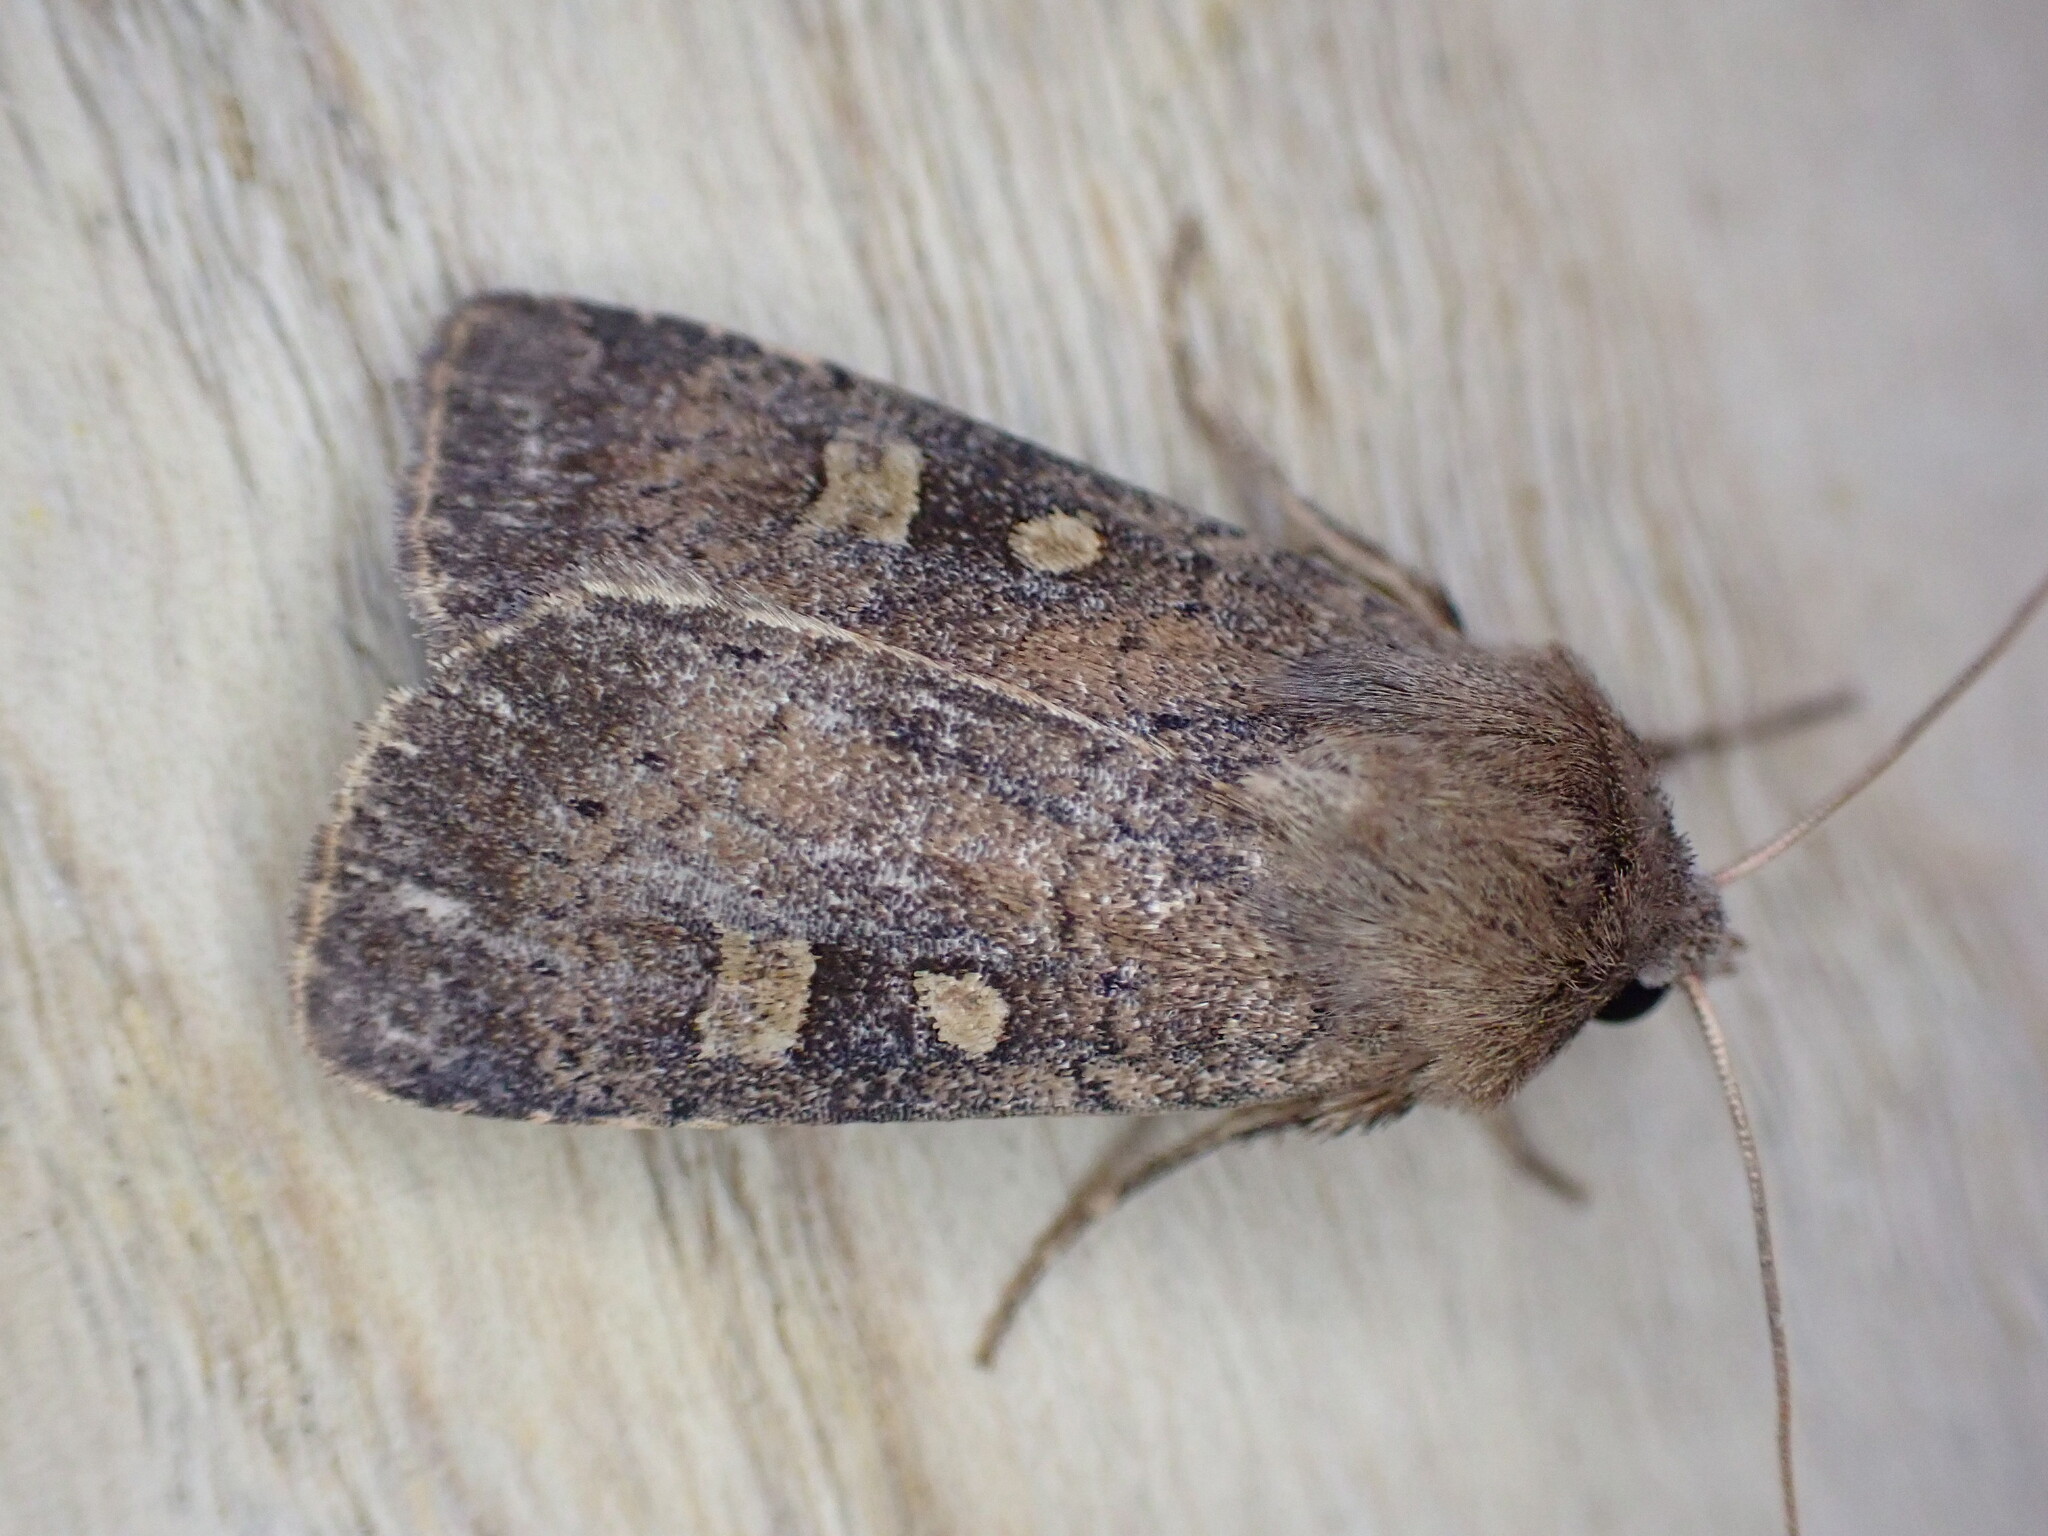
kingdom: Animalia
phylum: Arthropoda
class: Insecta
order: Lepidoptera
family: Noctuidae
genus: Xestia
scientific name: Xestia xanthographa
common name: Square-spot rustic
